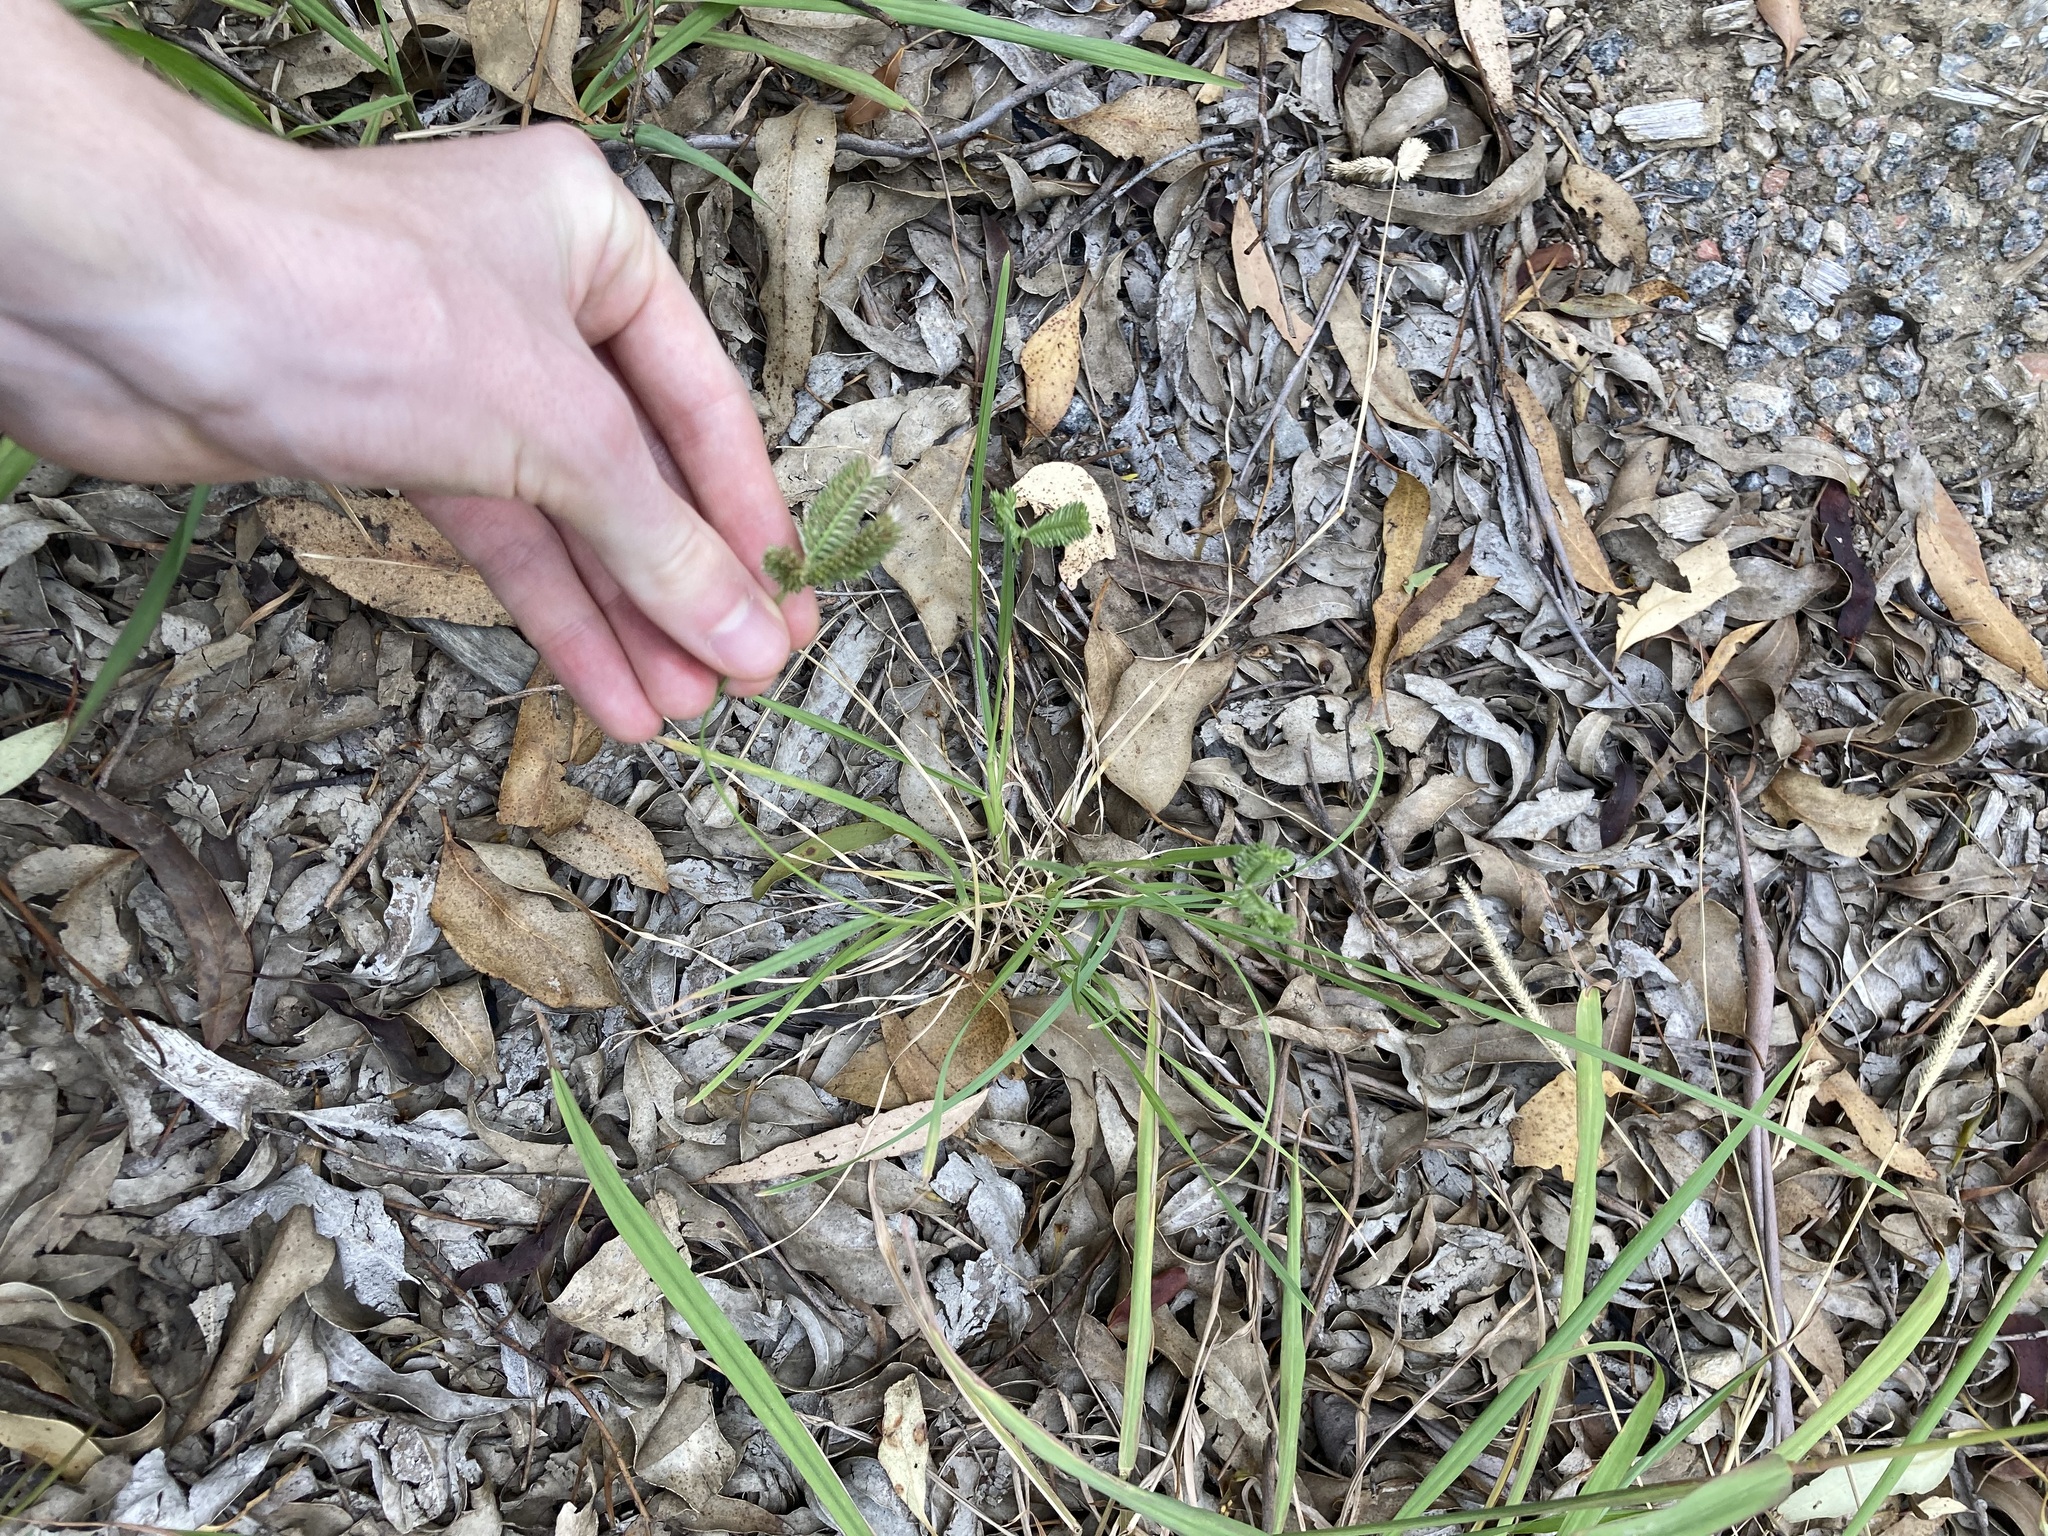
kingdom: Plantae
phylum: Tracheophyta
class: Liliopsida
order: Poales
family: Poaceae
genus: Eleusine
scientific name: Eleusine tristachya
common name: American yard-grass
